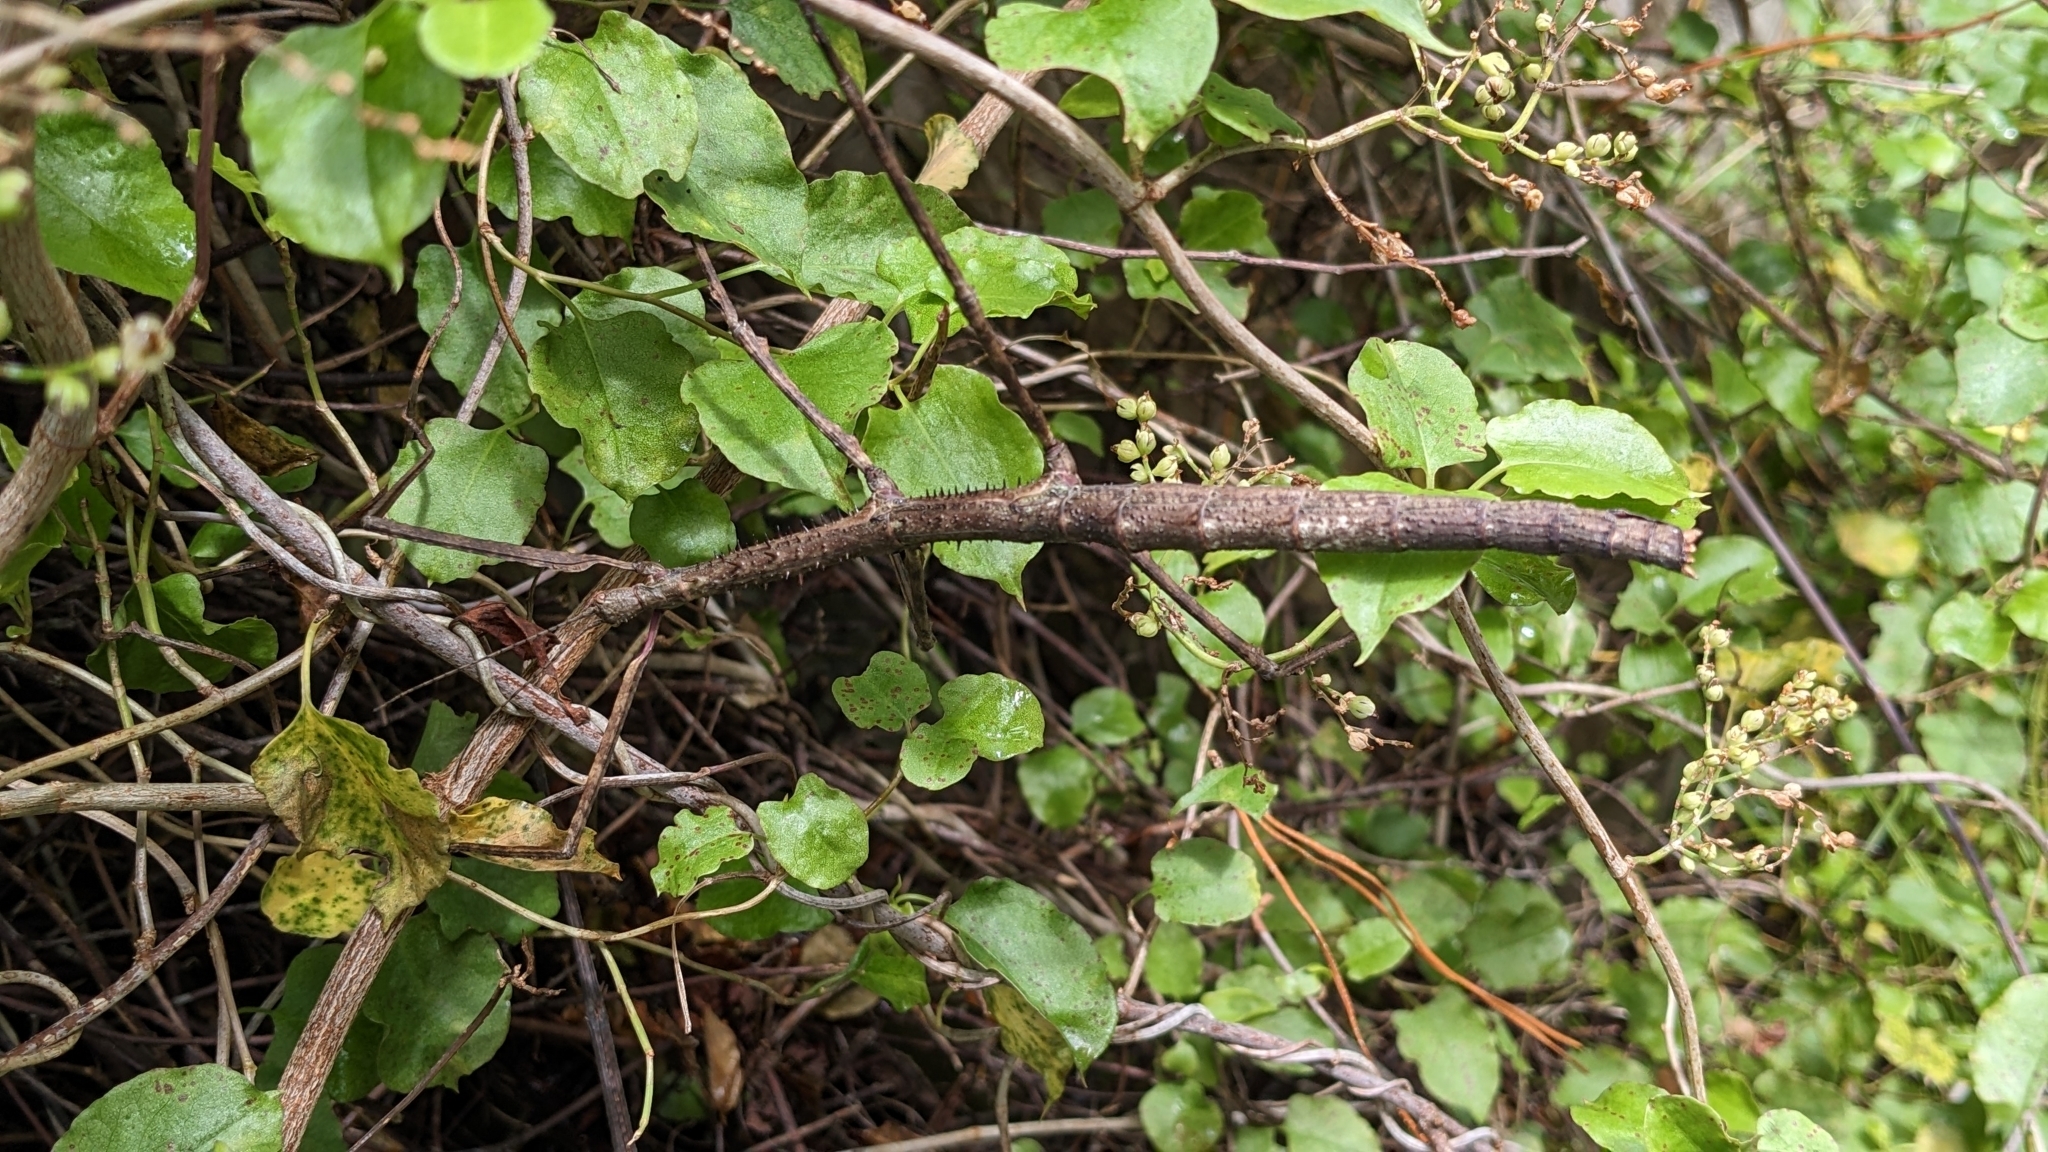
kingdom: Animalia
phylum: Arthropoda
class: Insecta
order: Phasmida
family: Phasmatidae
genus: Argosarchus
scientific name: Argosarchus horridus
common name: Bristly stick insect
